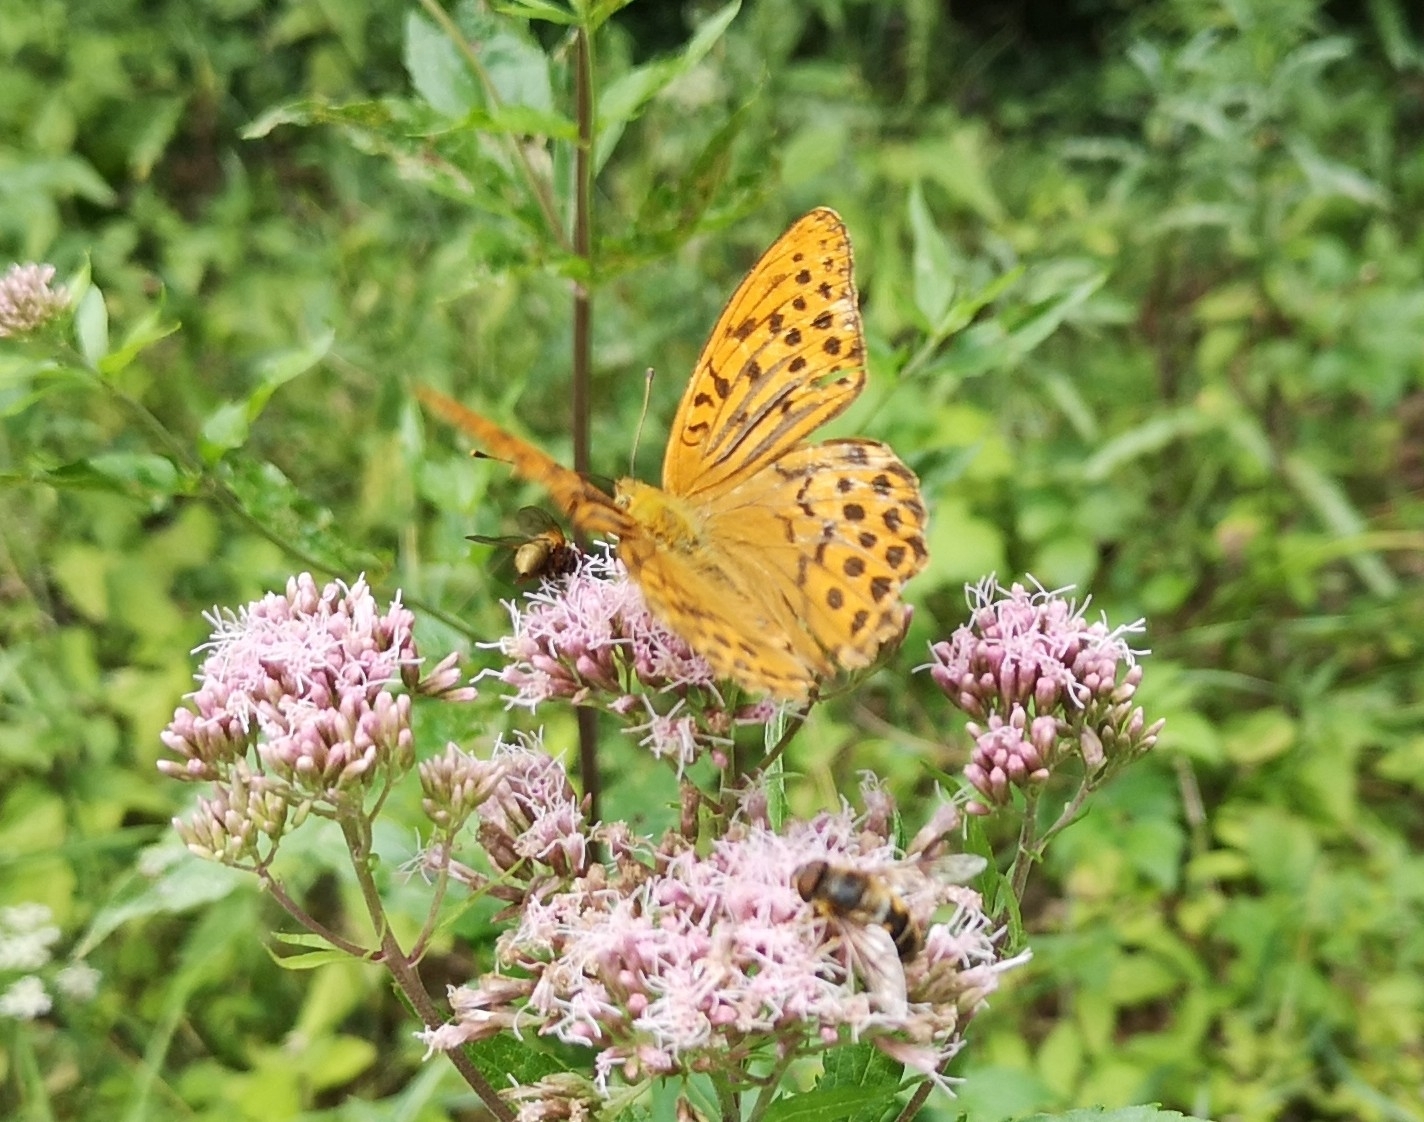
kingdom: Animalia
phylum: Arthropoda
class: Insecta
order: Lepidoptera
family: Nymphalidae
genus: Argynnis
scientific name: Argynnis paphia
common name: Silver-washed fritillary
